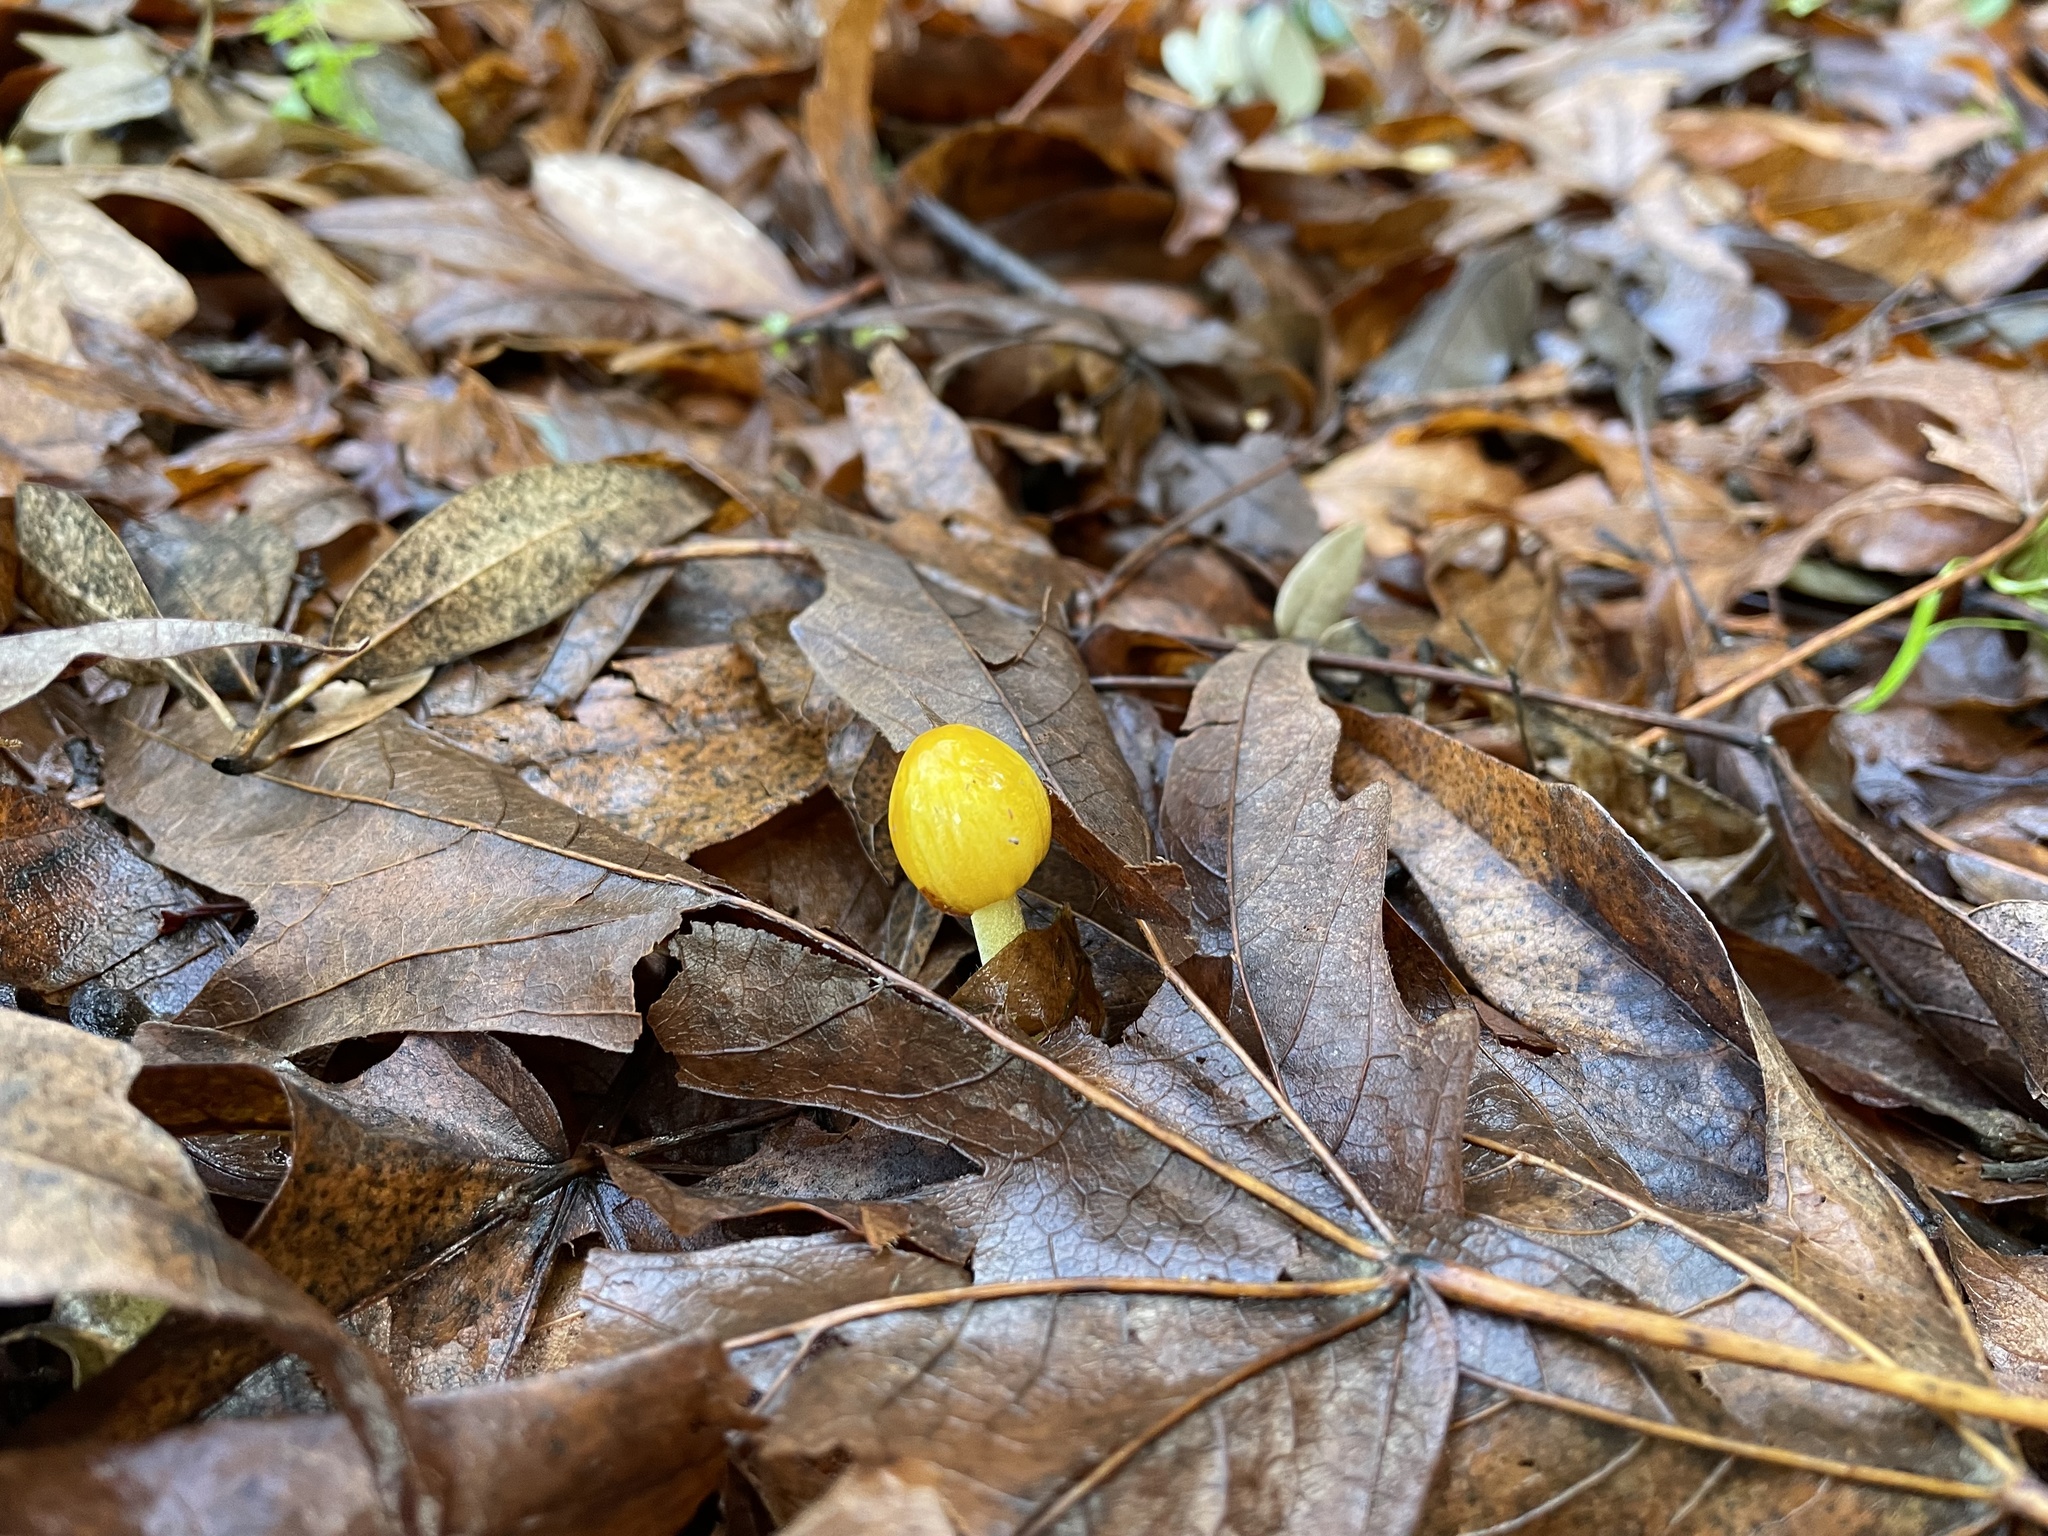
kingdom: Fungi
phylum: Basidiomycota
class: Agaricomycetes
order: Agaricales
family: Bolbitiaceae
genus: Bolbitius
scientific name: Bolbitius titubans
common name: Yellow fieldcap
